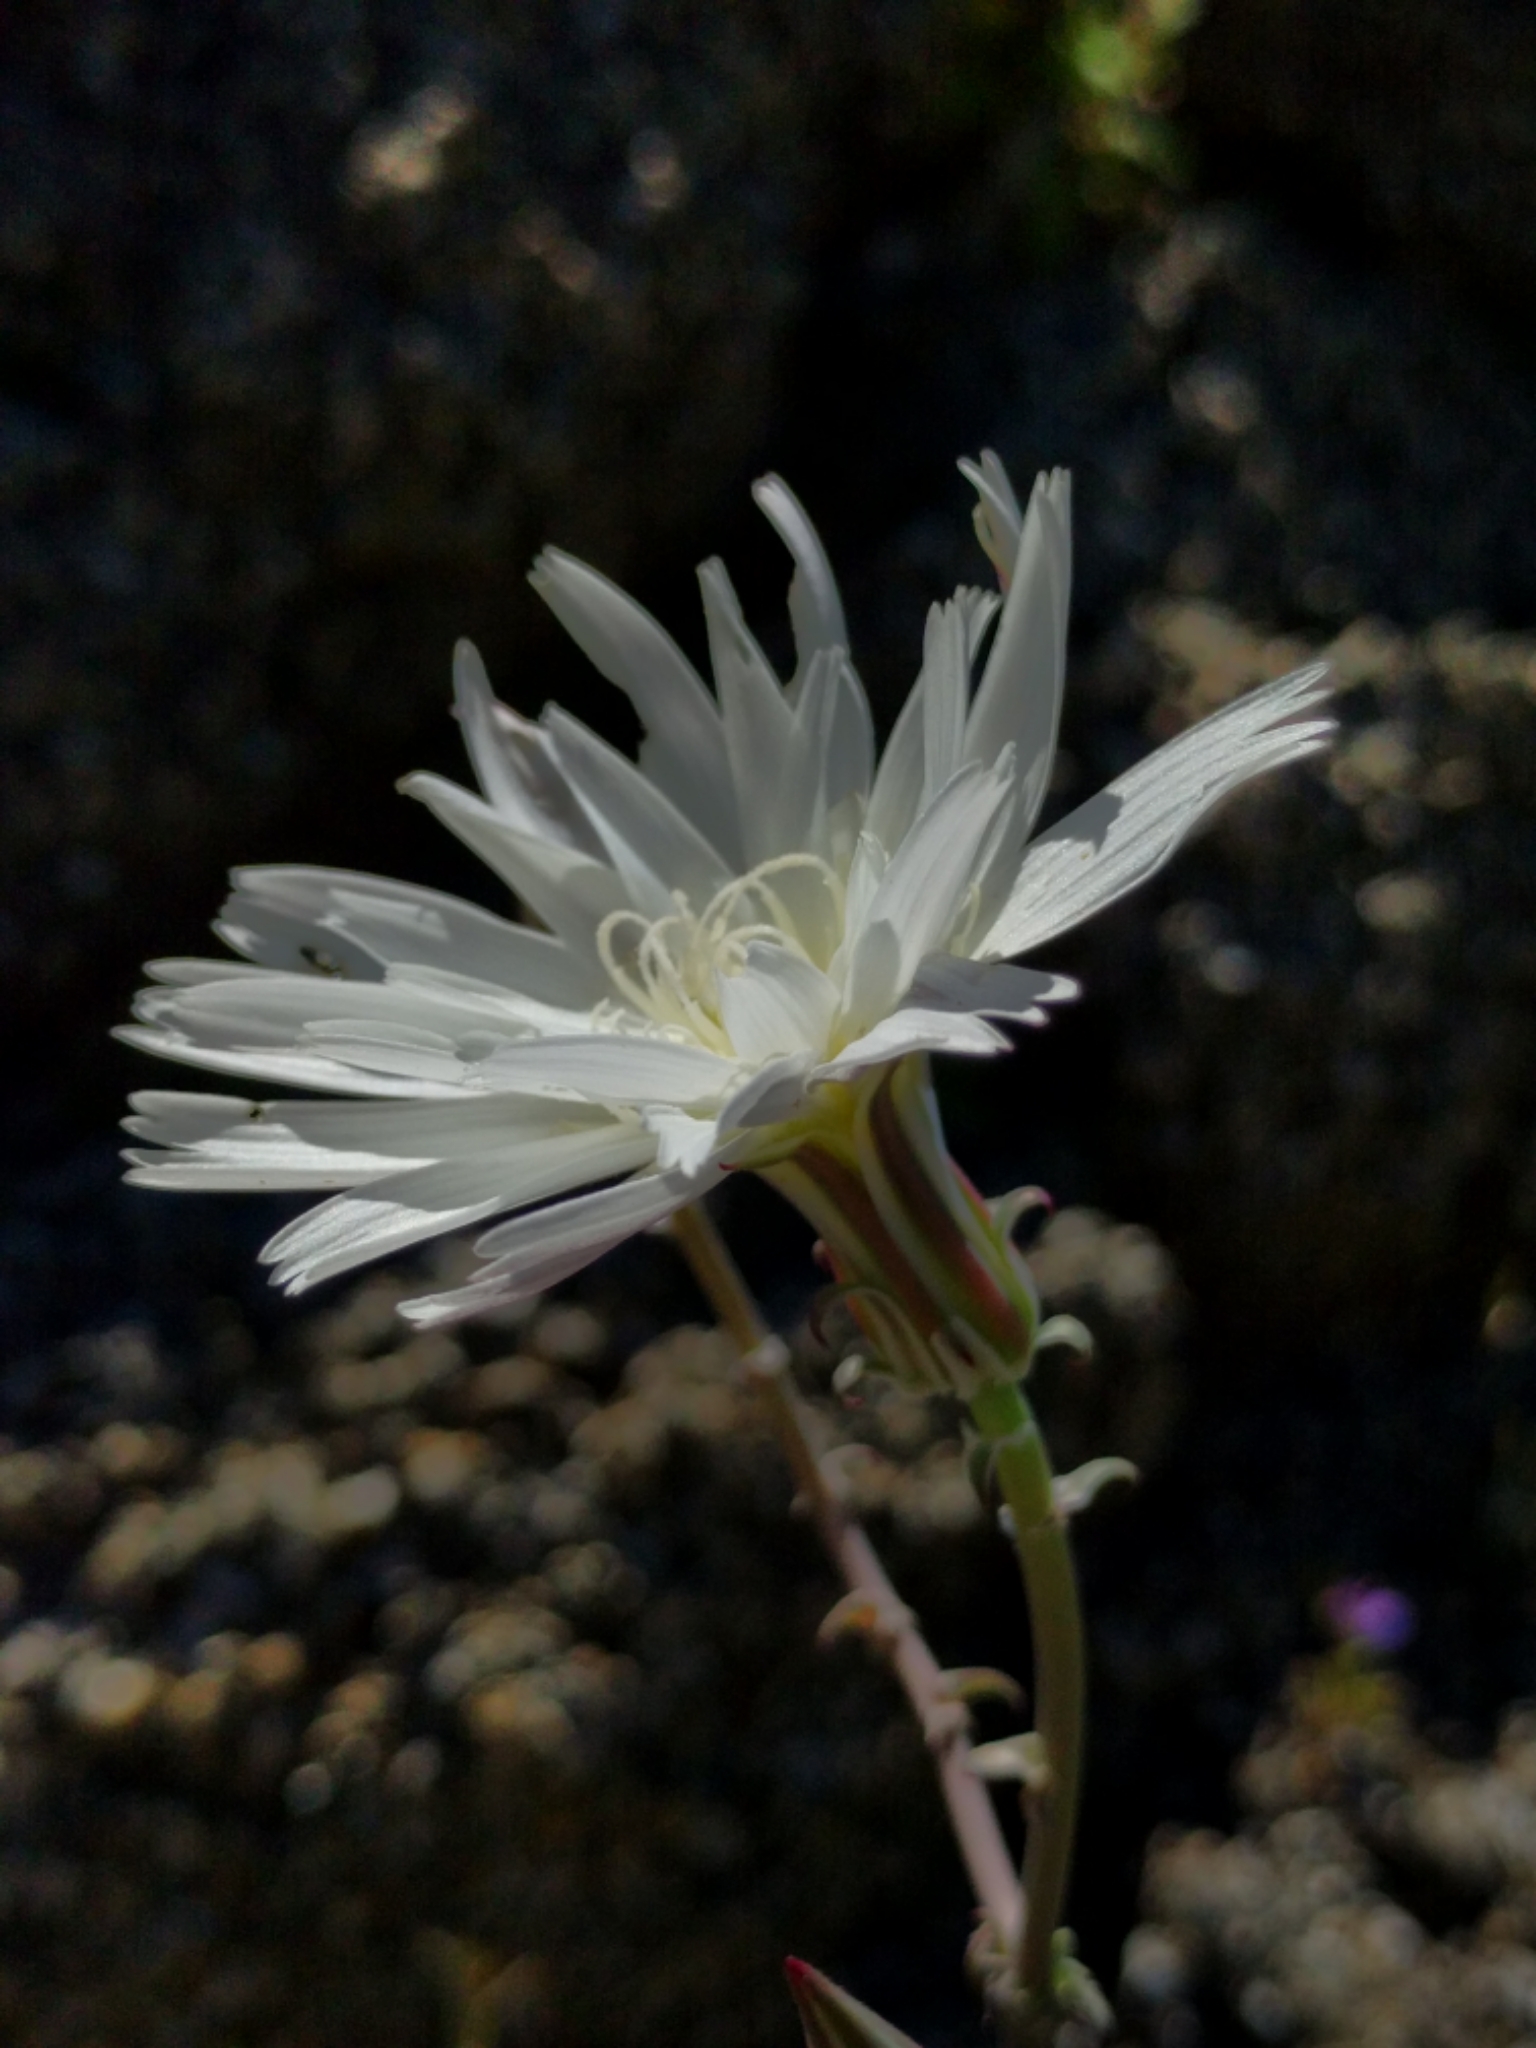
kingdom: Plantae
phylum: Tracheophyta
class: Magnoliopsida
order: Asterales
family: Asteraceae
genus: Rafinesquia
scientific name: Rafinesquia neomexicana
